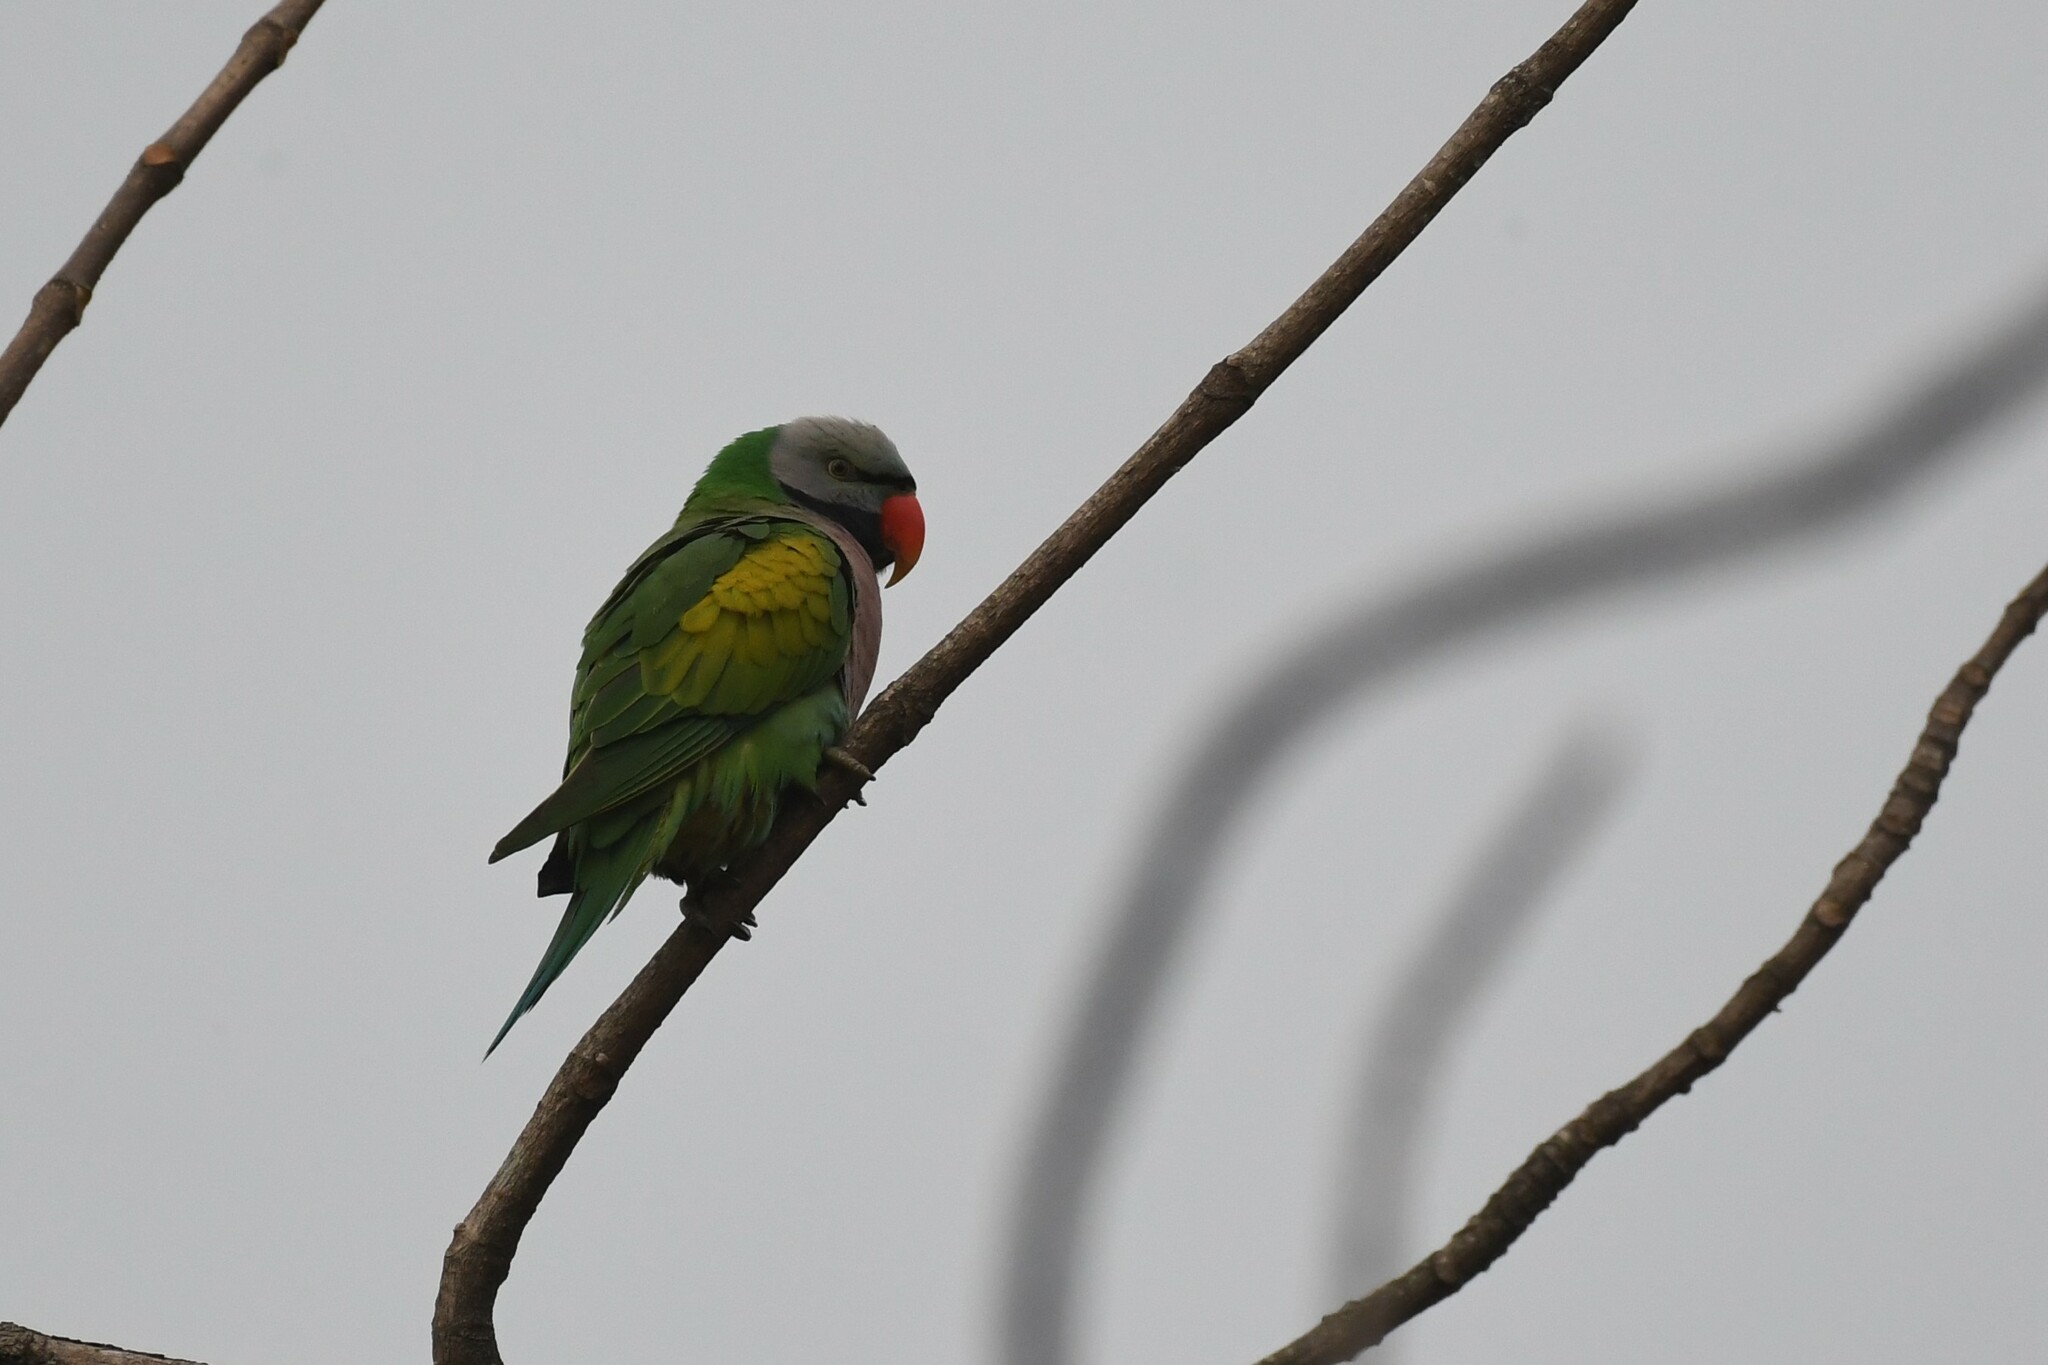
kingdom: Animalia
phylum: Chordata
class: Aves
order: Psittaciformes
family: Psittacidae
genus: Psittacula
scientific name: Psittacula alexandri
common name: Red-breasted parakeet
